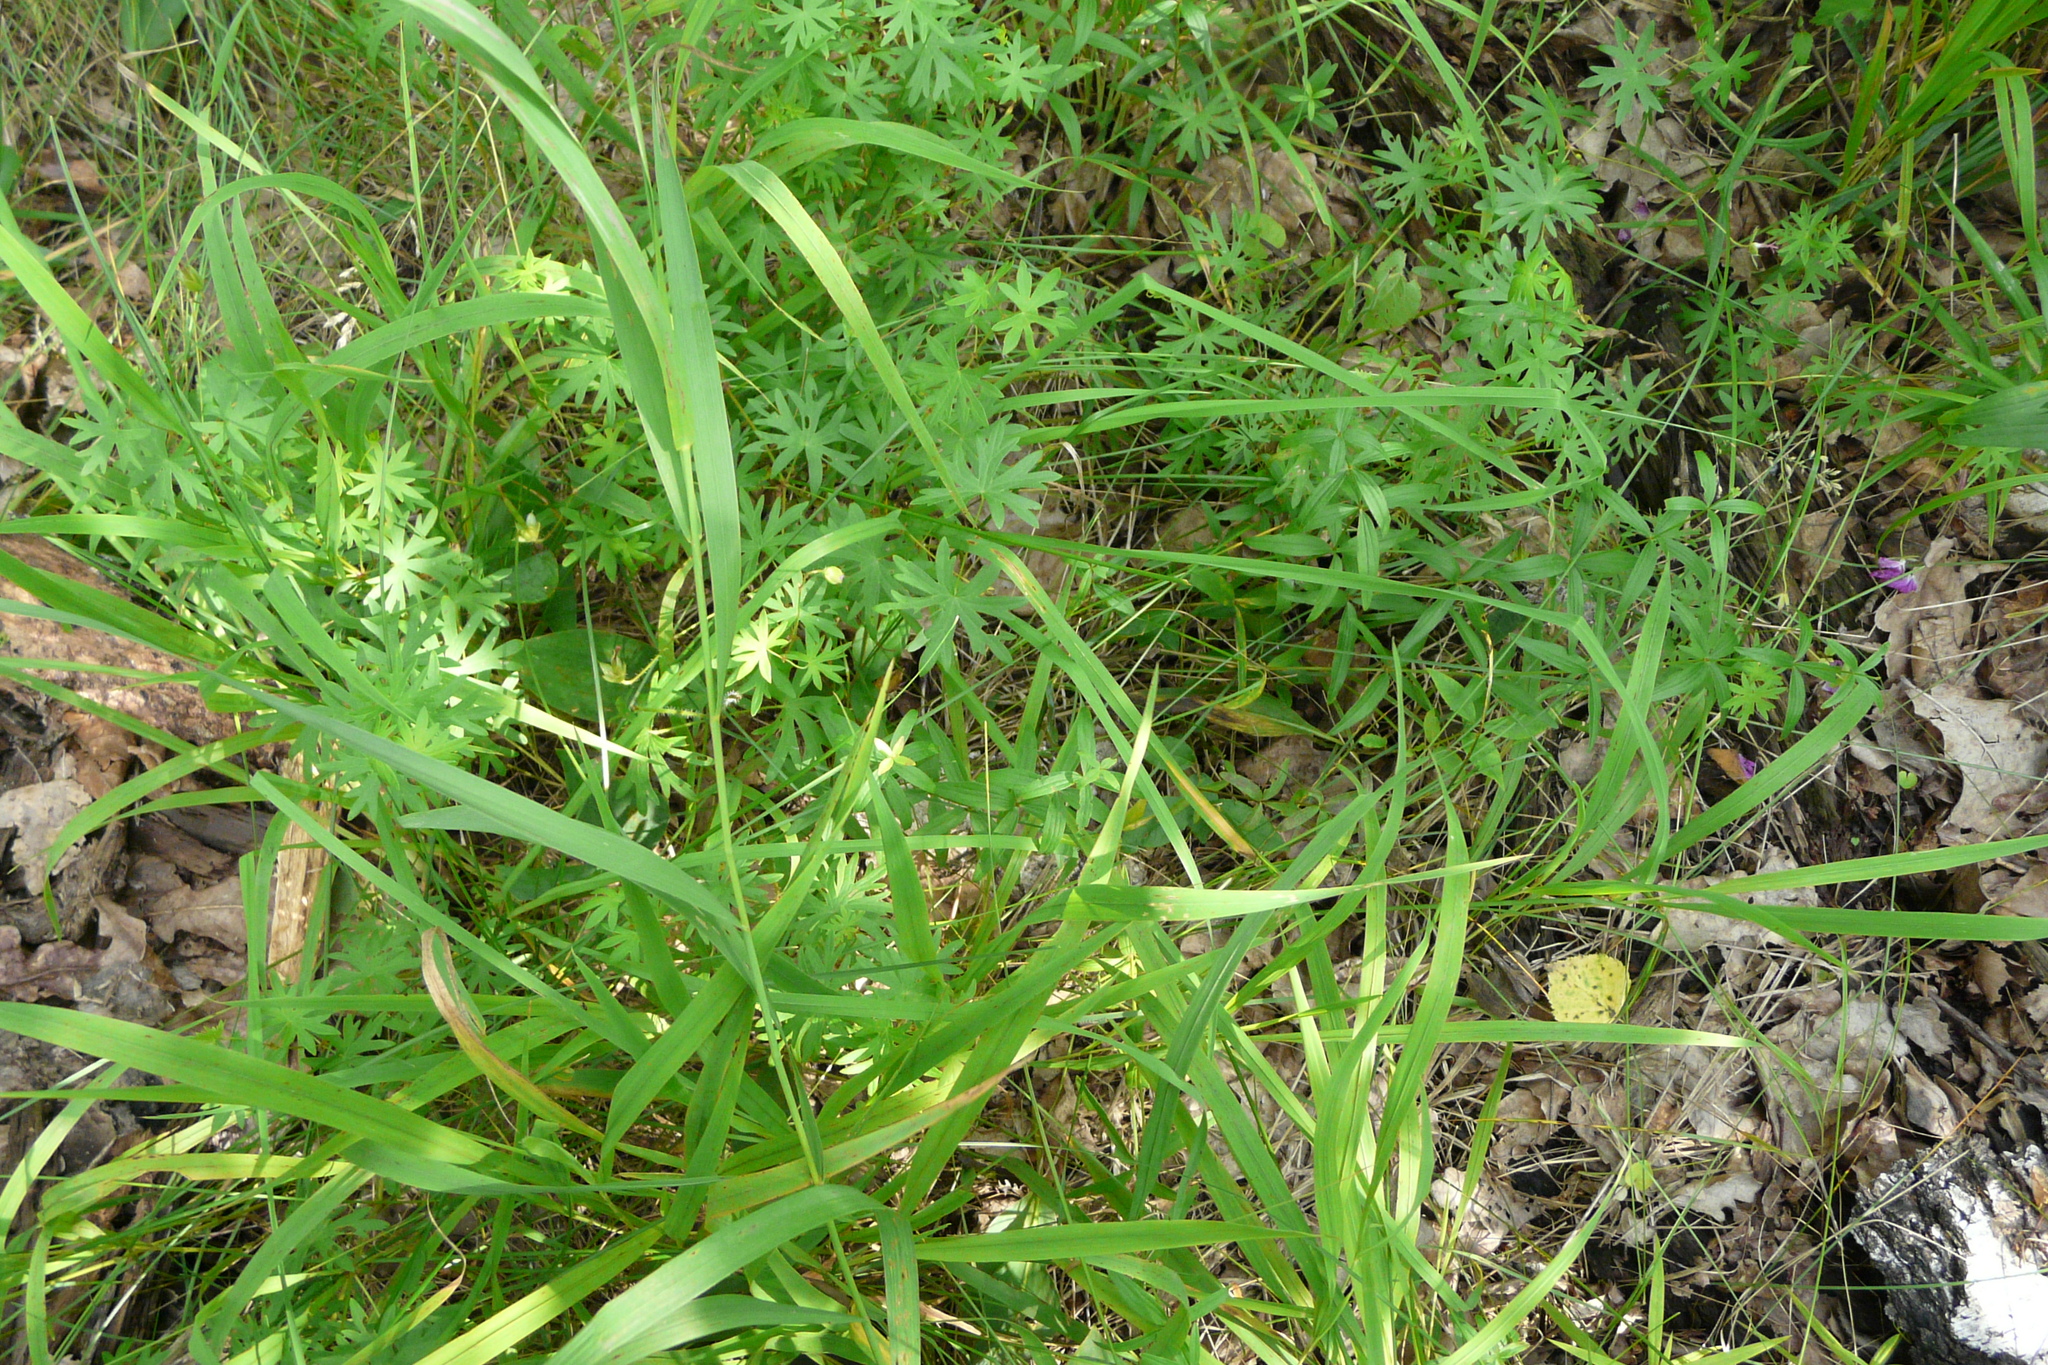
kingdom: Plantae
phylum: Tracheophyta
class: Magnoliopsida
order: Geraniales
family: Geraniaceae
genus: Geranium
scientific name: Geranium sanguineum
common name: Bloody crane's-bill
